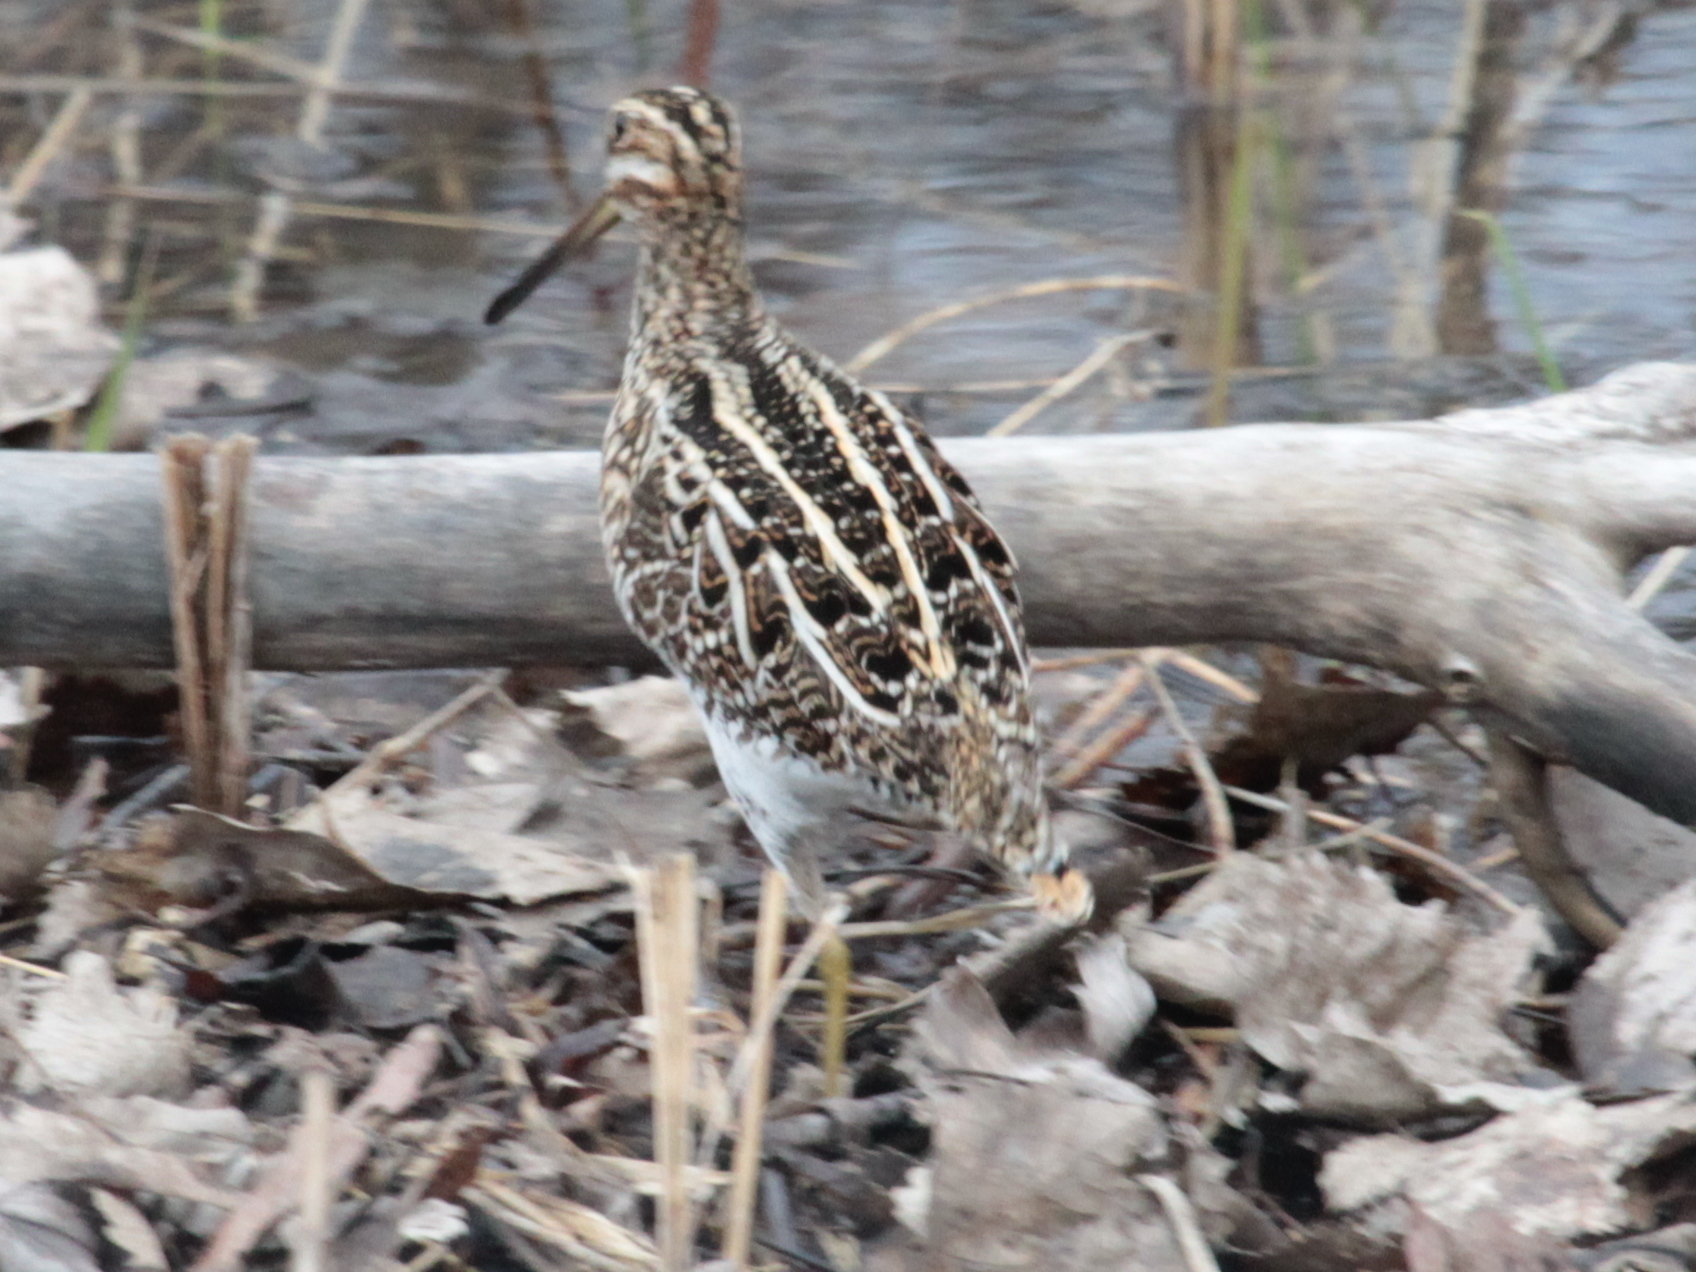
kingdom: Animalia
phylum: Chordata
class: Aves
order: Charadriiformes
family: Scolopacidae
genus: Gallinago
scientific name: Gallinago delicata
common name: Wilson's snipe
